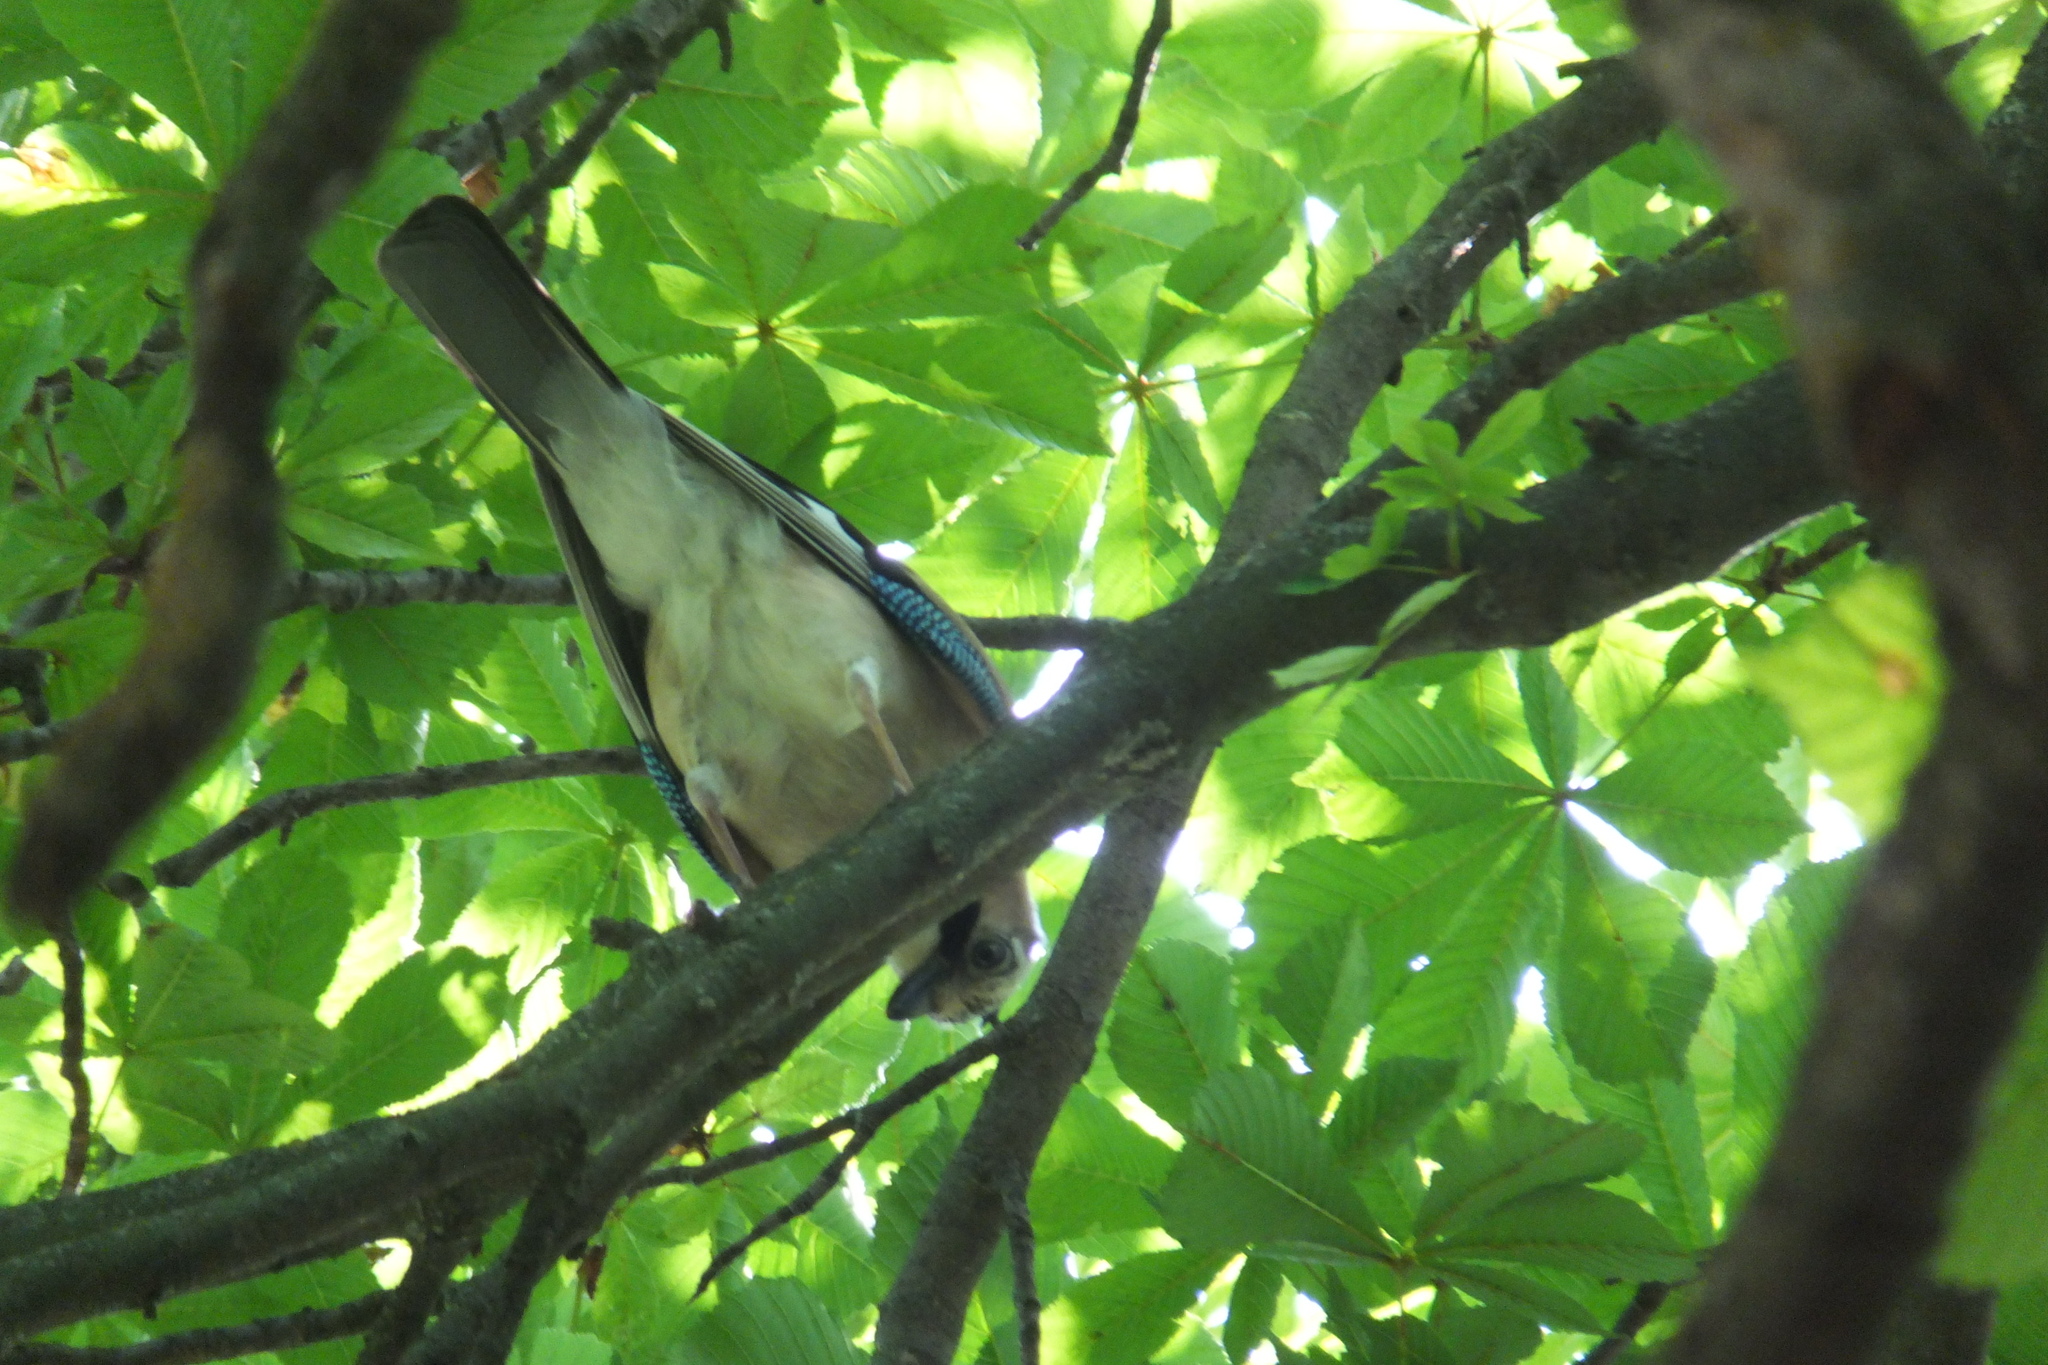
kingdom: Animalia
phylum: Chordata
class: Aves
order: Passeriformes
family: Corvidae
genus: Garrulus
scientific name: Garrulus glandarius
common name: Eurasian jay
